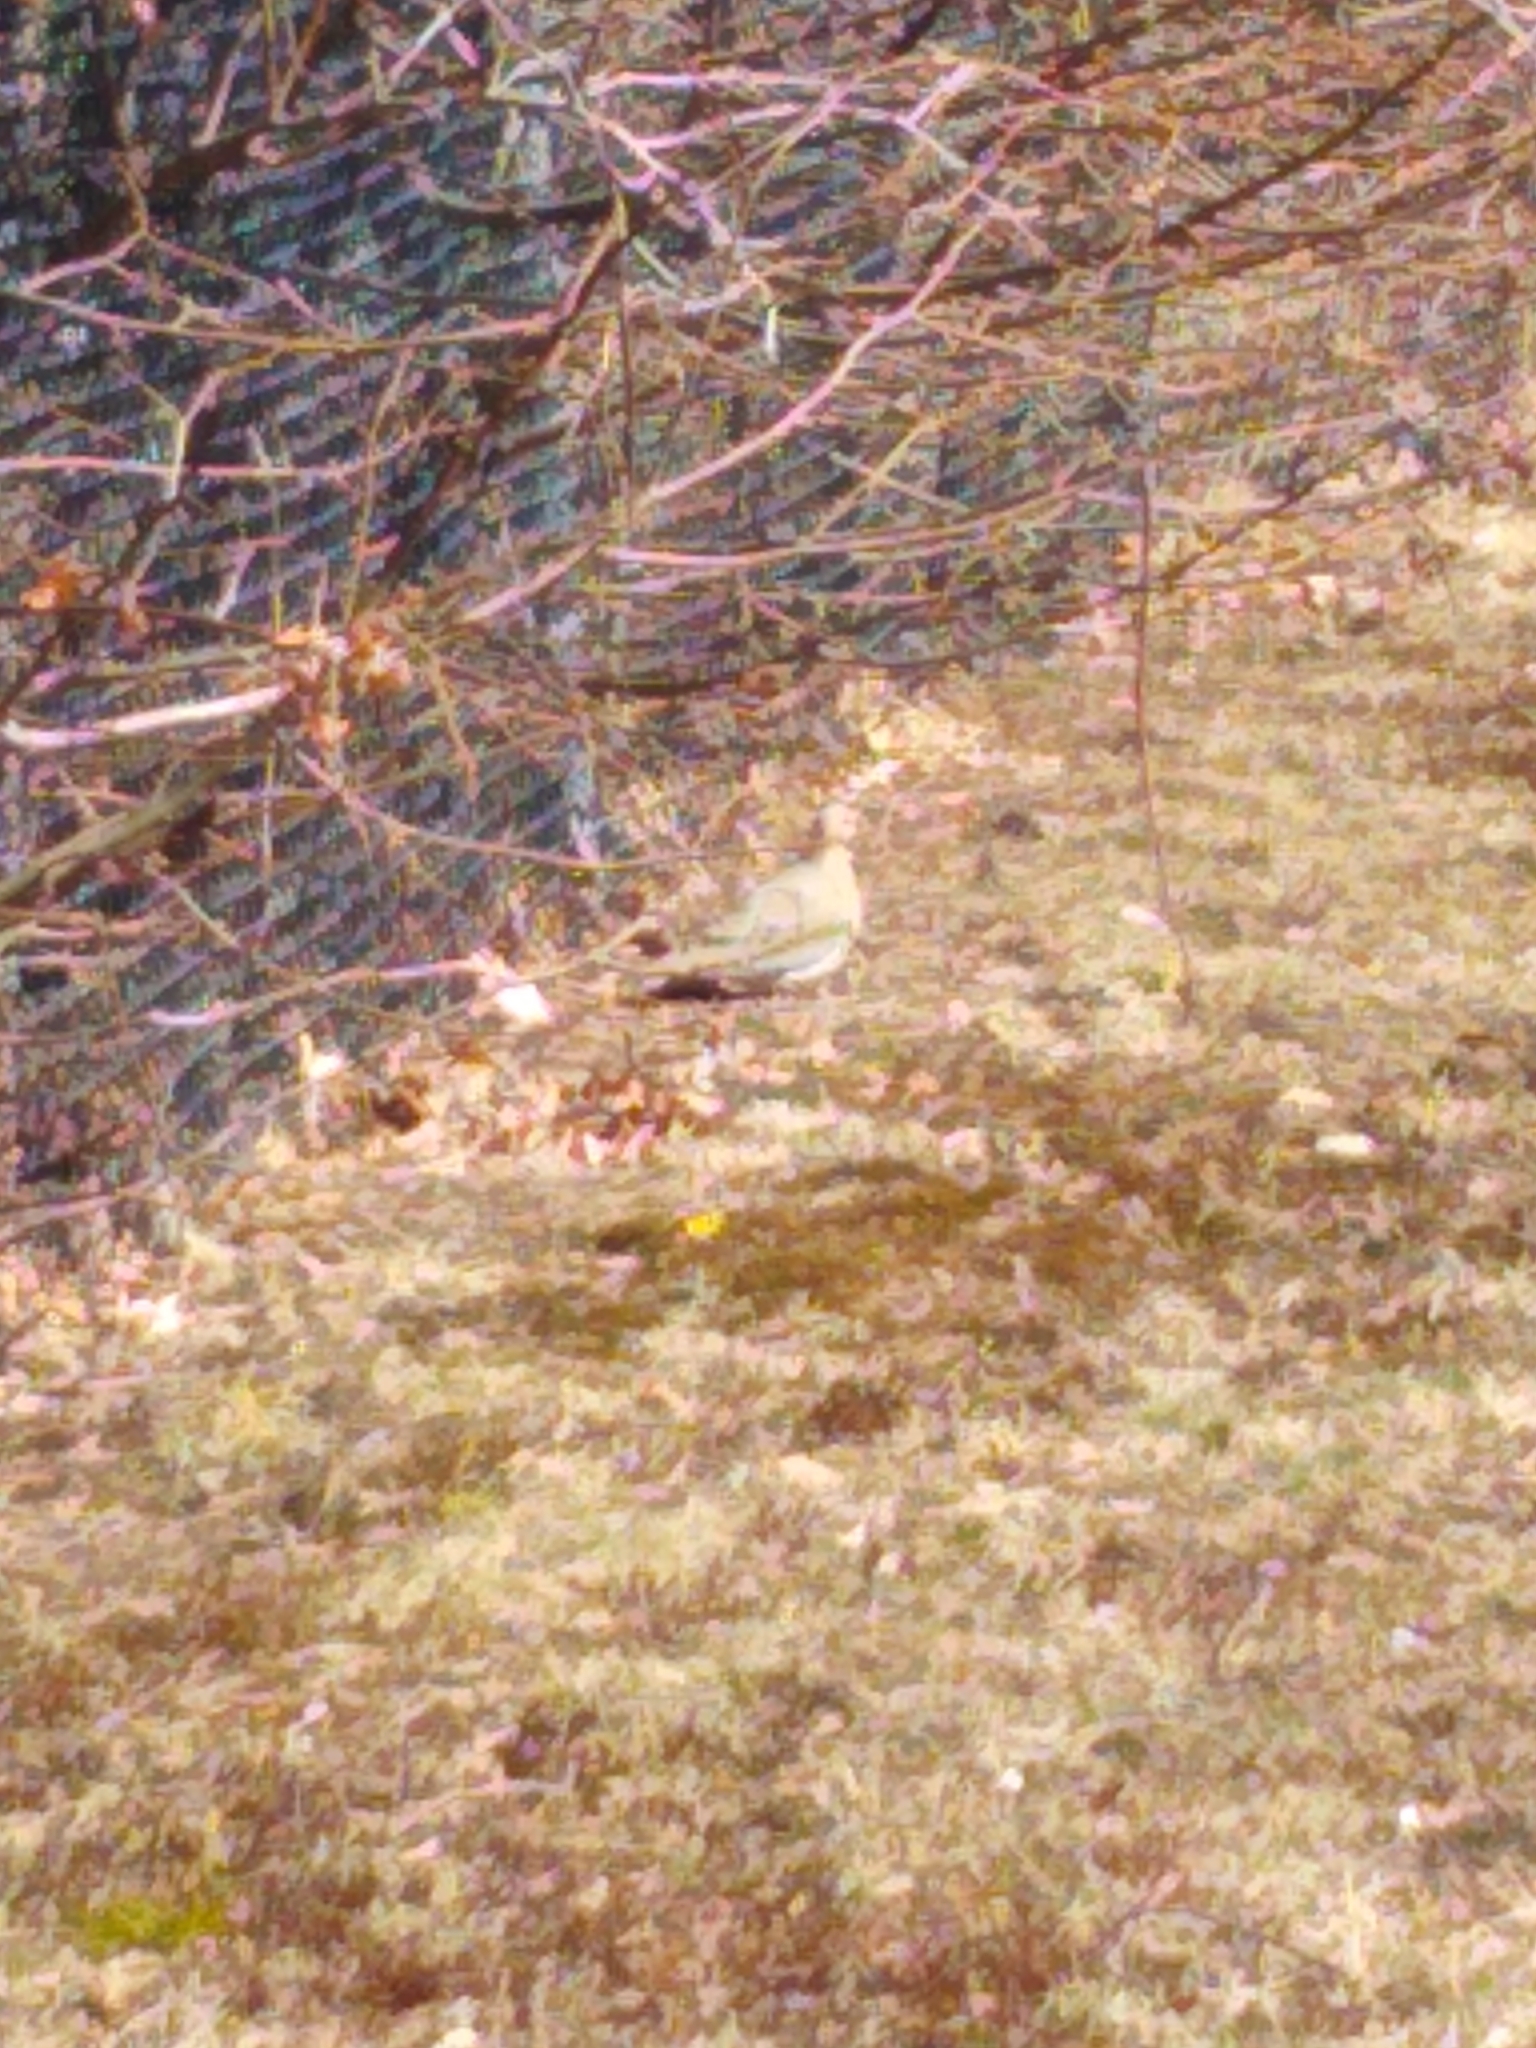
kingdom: Animalia
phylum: Chordata
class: Aves
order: Columbiformes
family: Columbidae
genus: Zenaida
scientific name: Zenaida macroura
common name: Mourning dove
